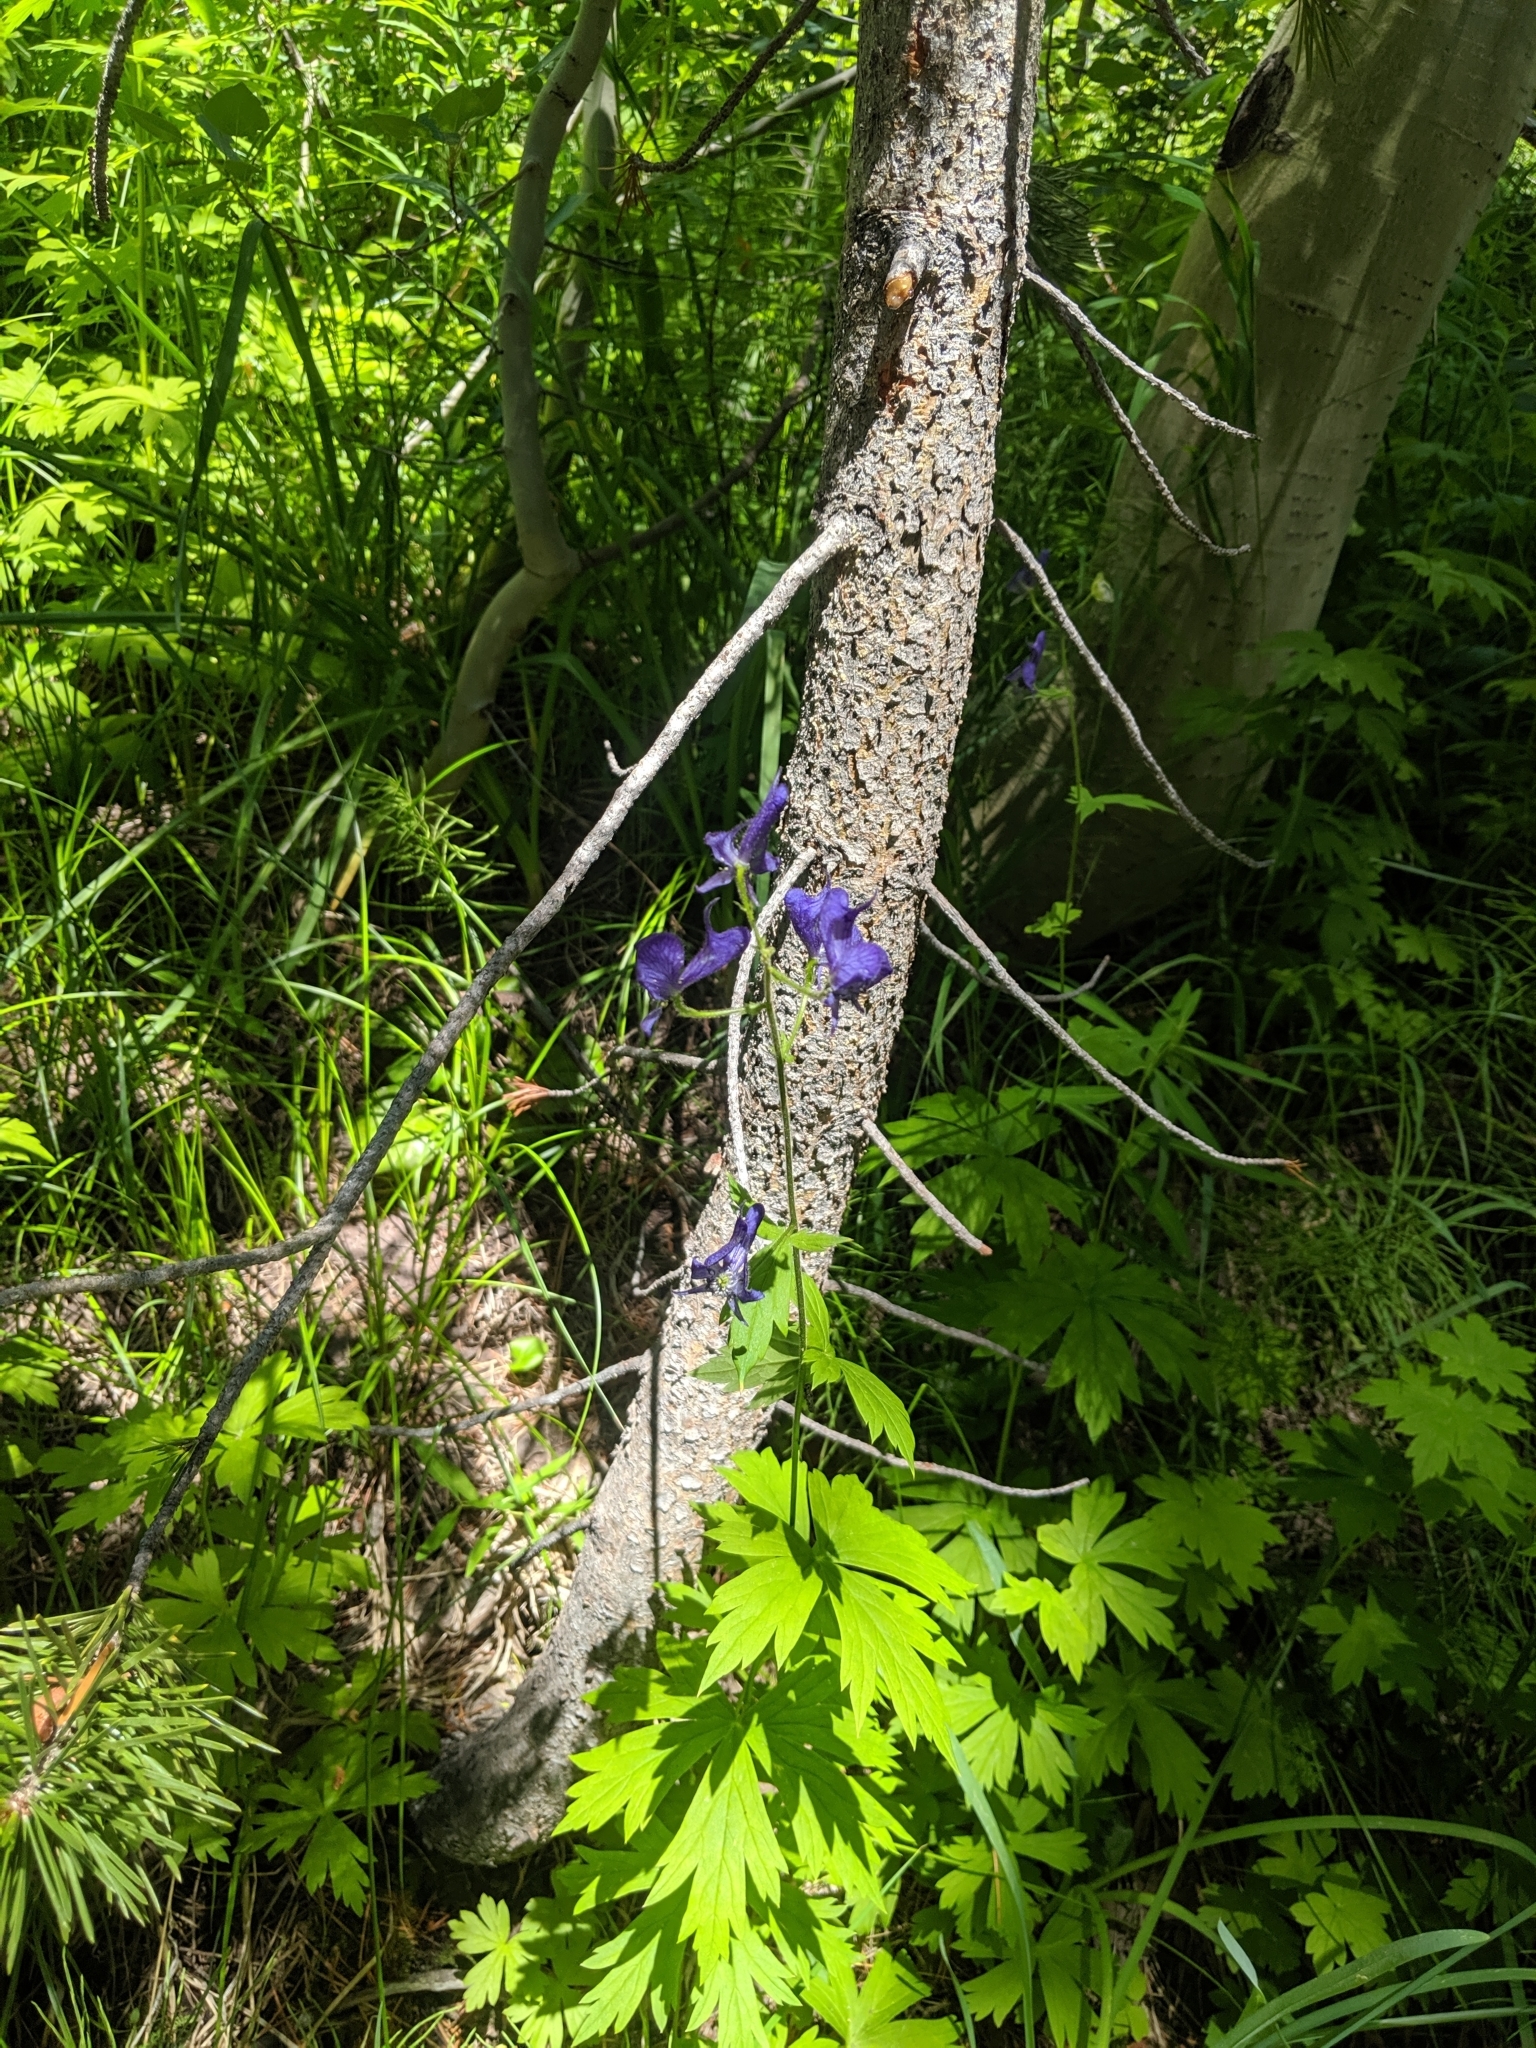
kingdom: Plantae
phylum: Tracheophyta
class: Magnoliopsida
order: Ranunculales
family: Ranunculaceae
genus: Aconitum
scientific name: Aconitum columbianum
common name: Columbia aconite
